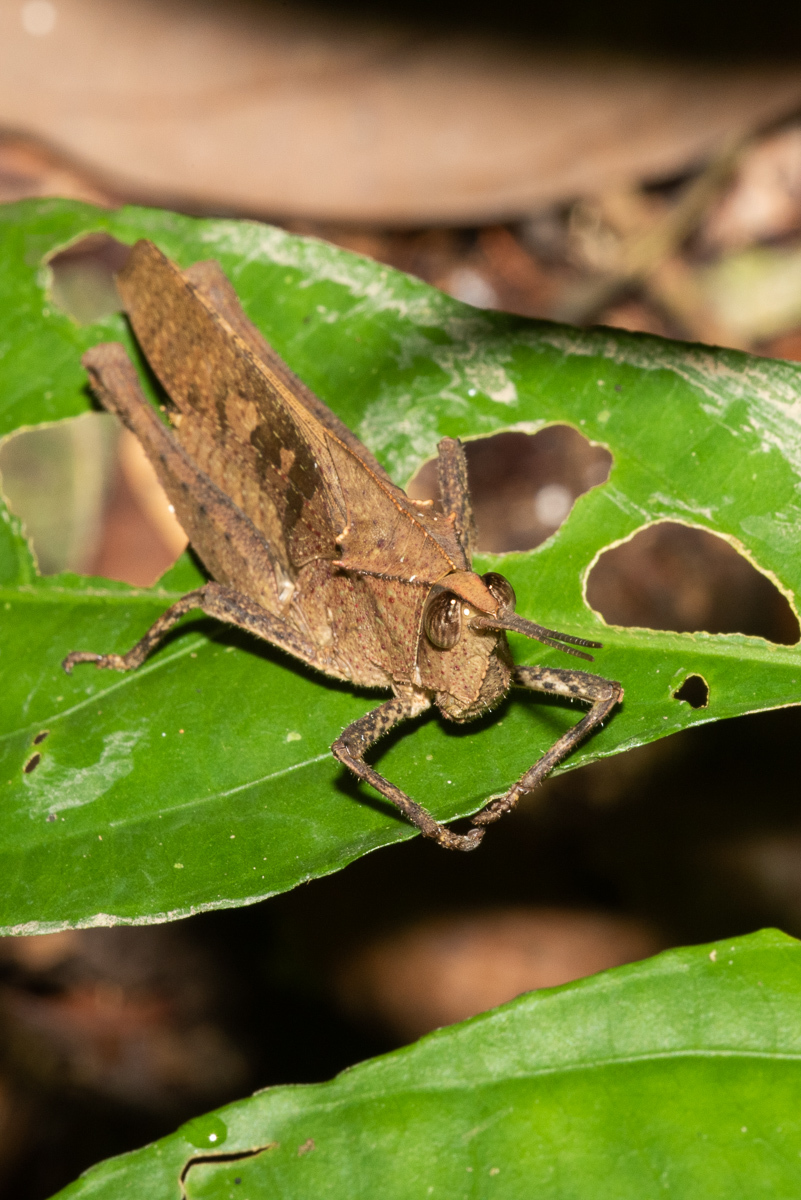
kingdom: Animalia
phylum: Arthropoda
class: Insecta
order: Orthoptera
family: Romaleidae
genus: Colpolopha
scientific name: Colpolopha latipennis
